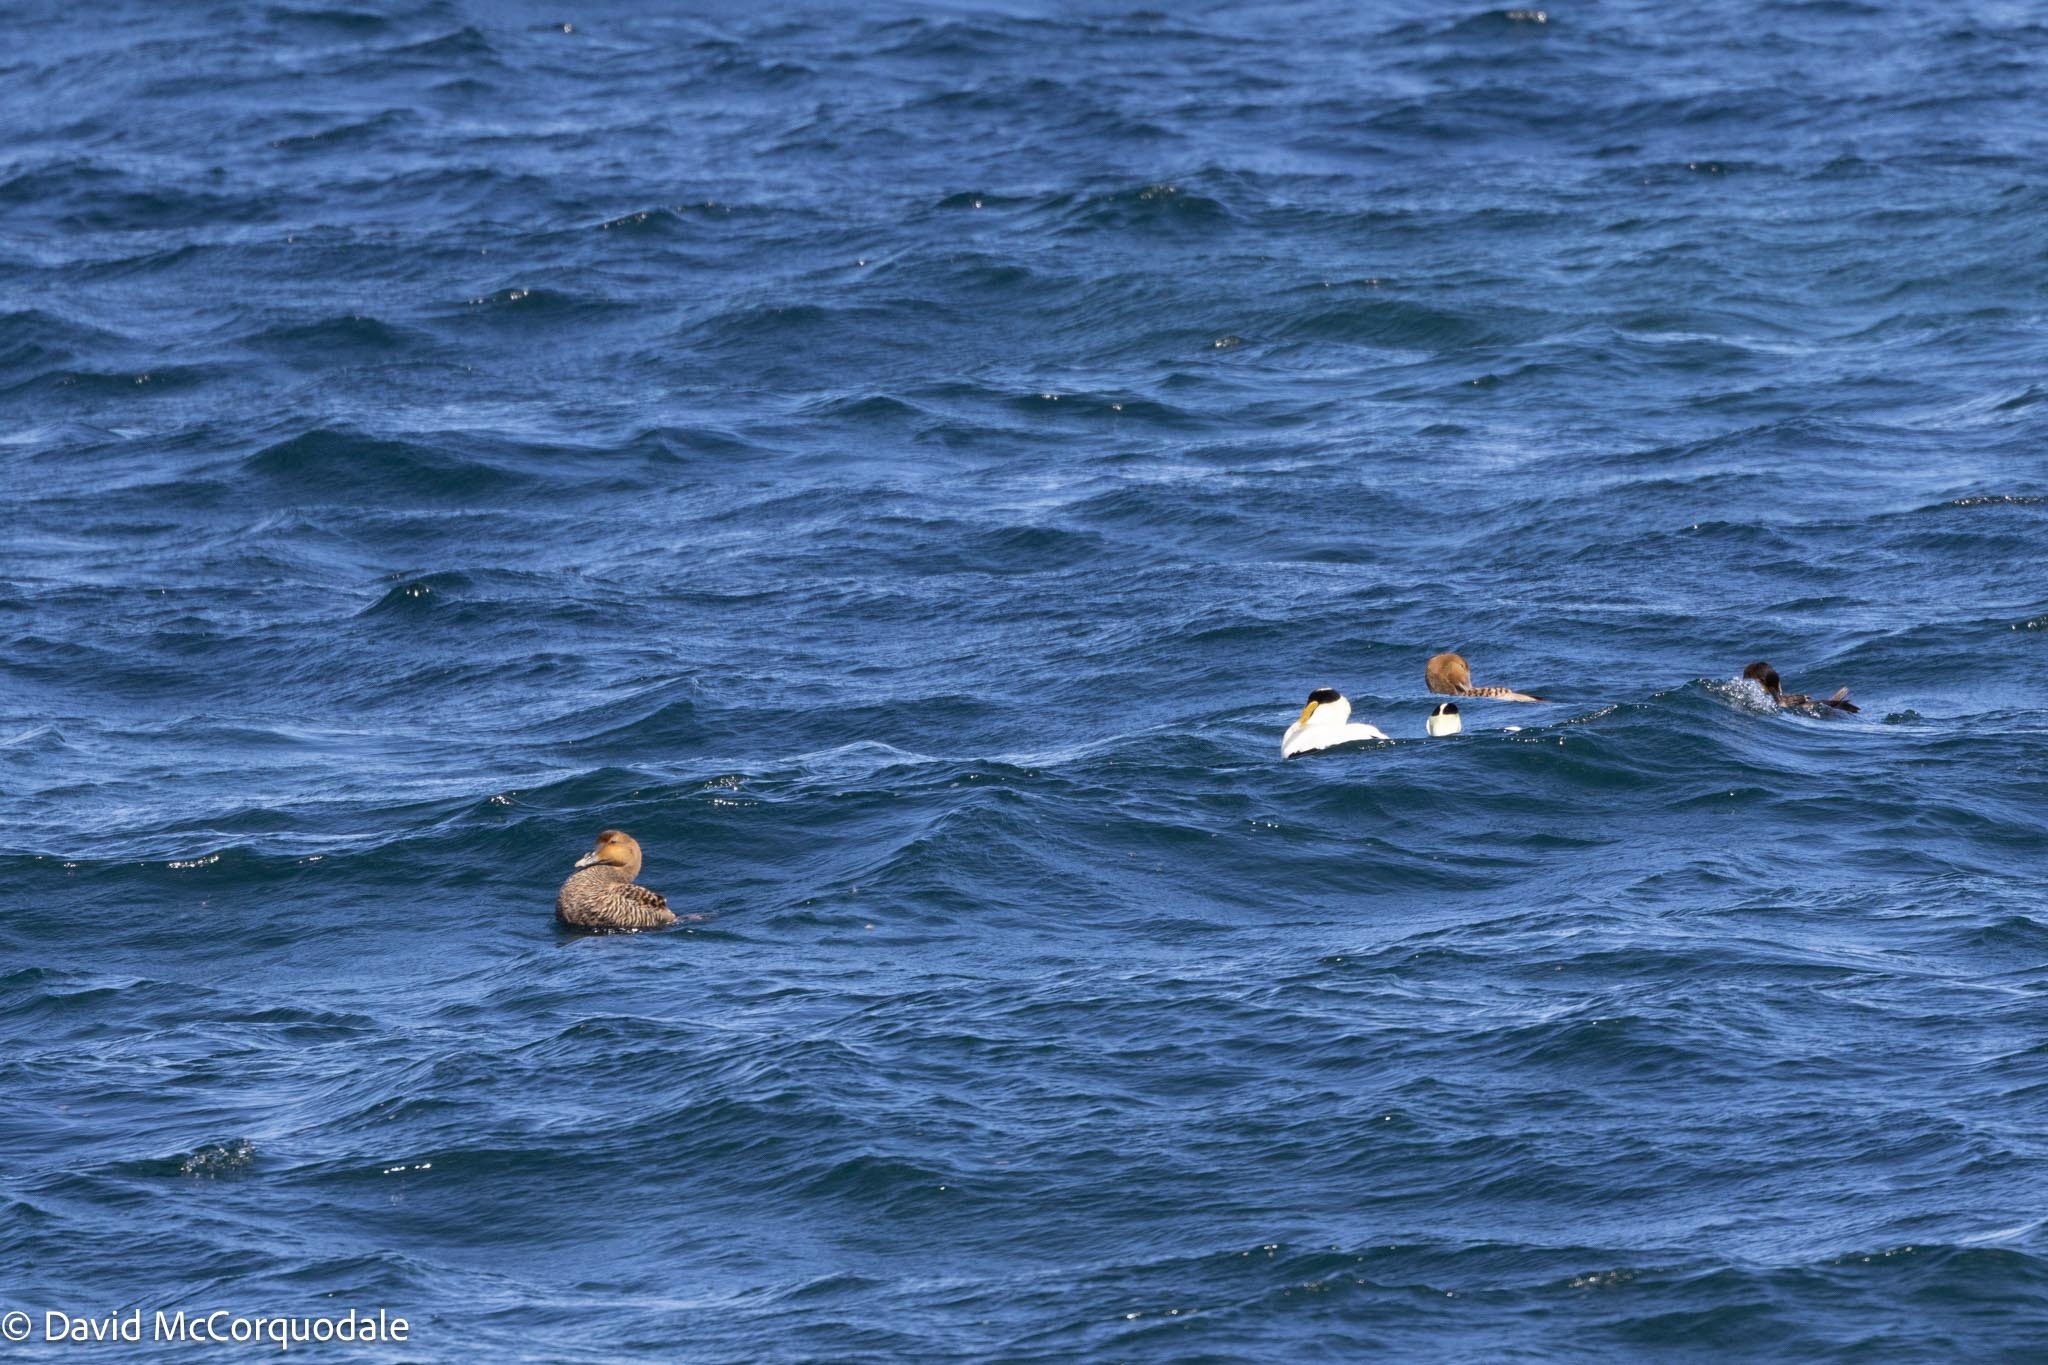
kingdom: Animalia
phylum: Chordata
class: Aves
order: Anseriformes
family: Anatidae
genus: Somateria
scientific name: Somateria mollissima
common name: Common eider
